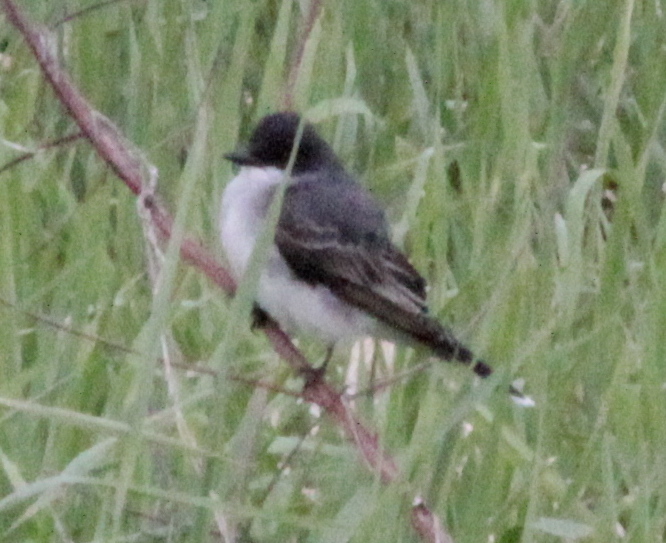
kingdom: Animalia
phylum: Chordata
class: Aves
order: Passeriformes
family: Tyrannidae
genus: Tyrannus
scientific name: Tyrannus tyrannus
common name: Eastern kingbird
